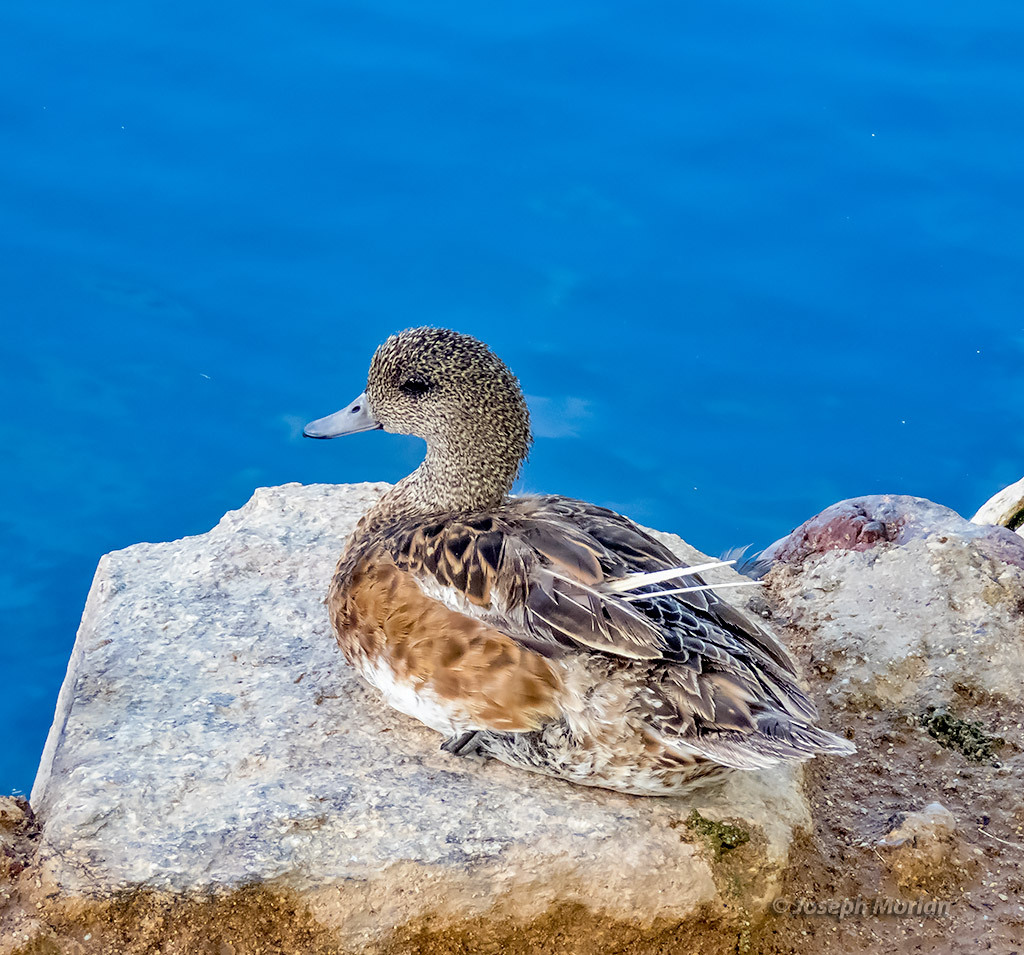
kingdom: Animalia
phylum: Chordata
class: Aves
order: Anseriformes
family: Anatidae
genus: Mareca
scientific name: Mareca americana
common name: American wigeon
